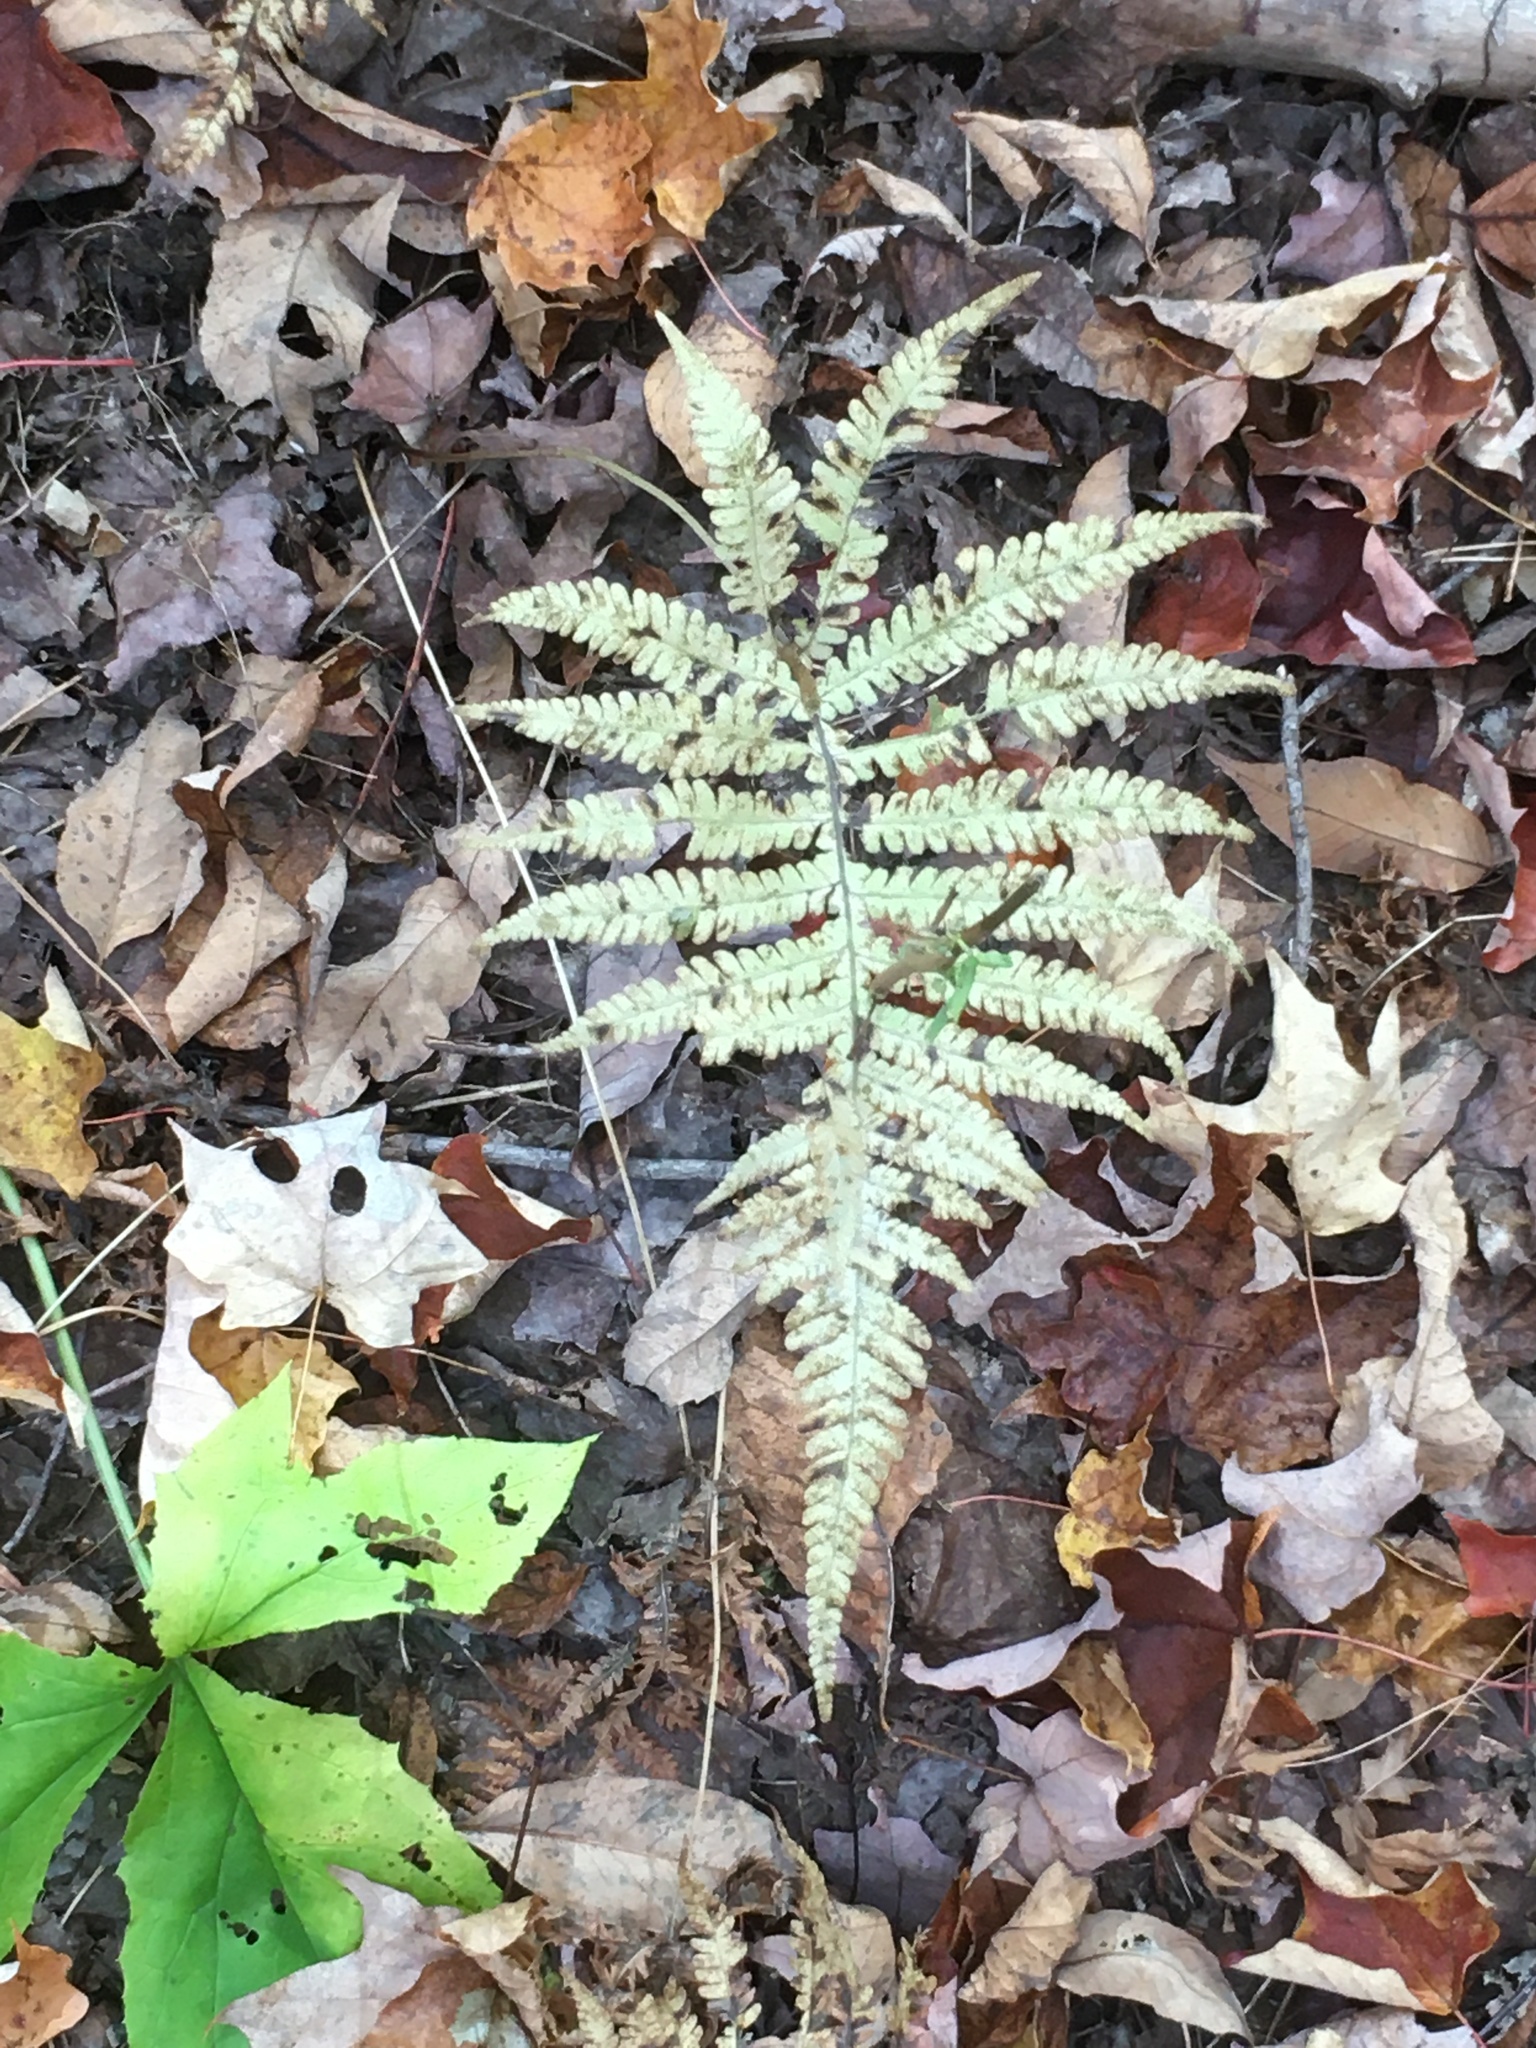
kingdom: Plantae
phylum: Tracheophyta
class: Polypodiopsida
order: Polypodiales
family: Thelypteridaceae
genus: Phegopteris
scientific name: Phegopteris connectilis
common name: Beech fern
